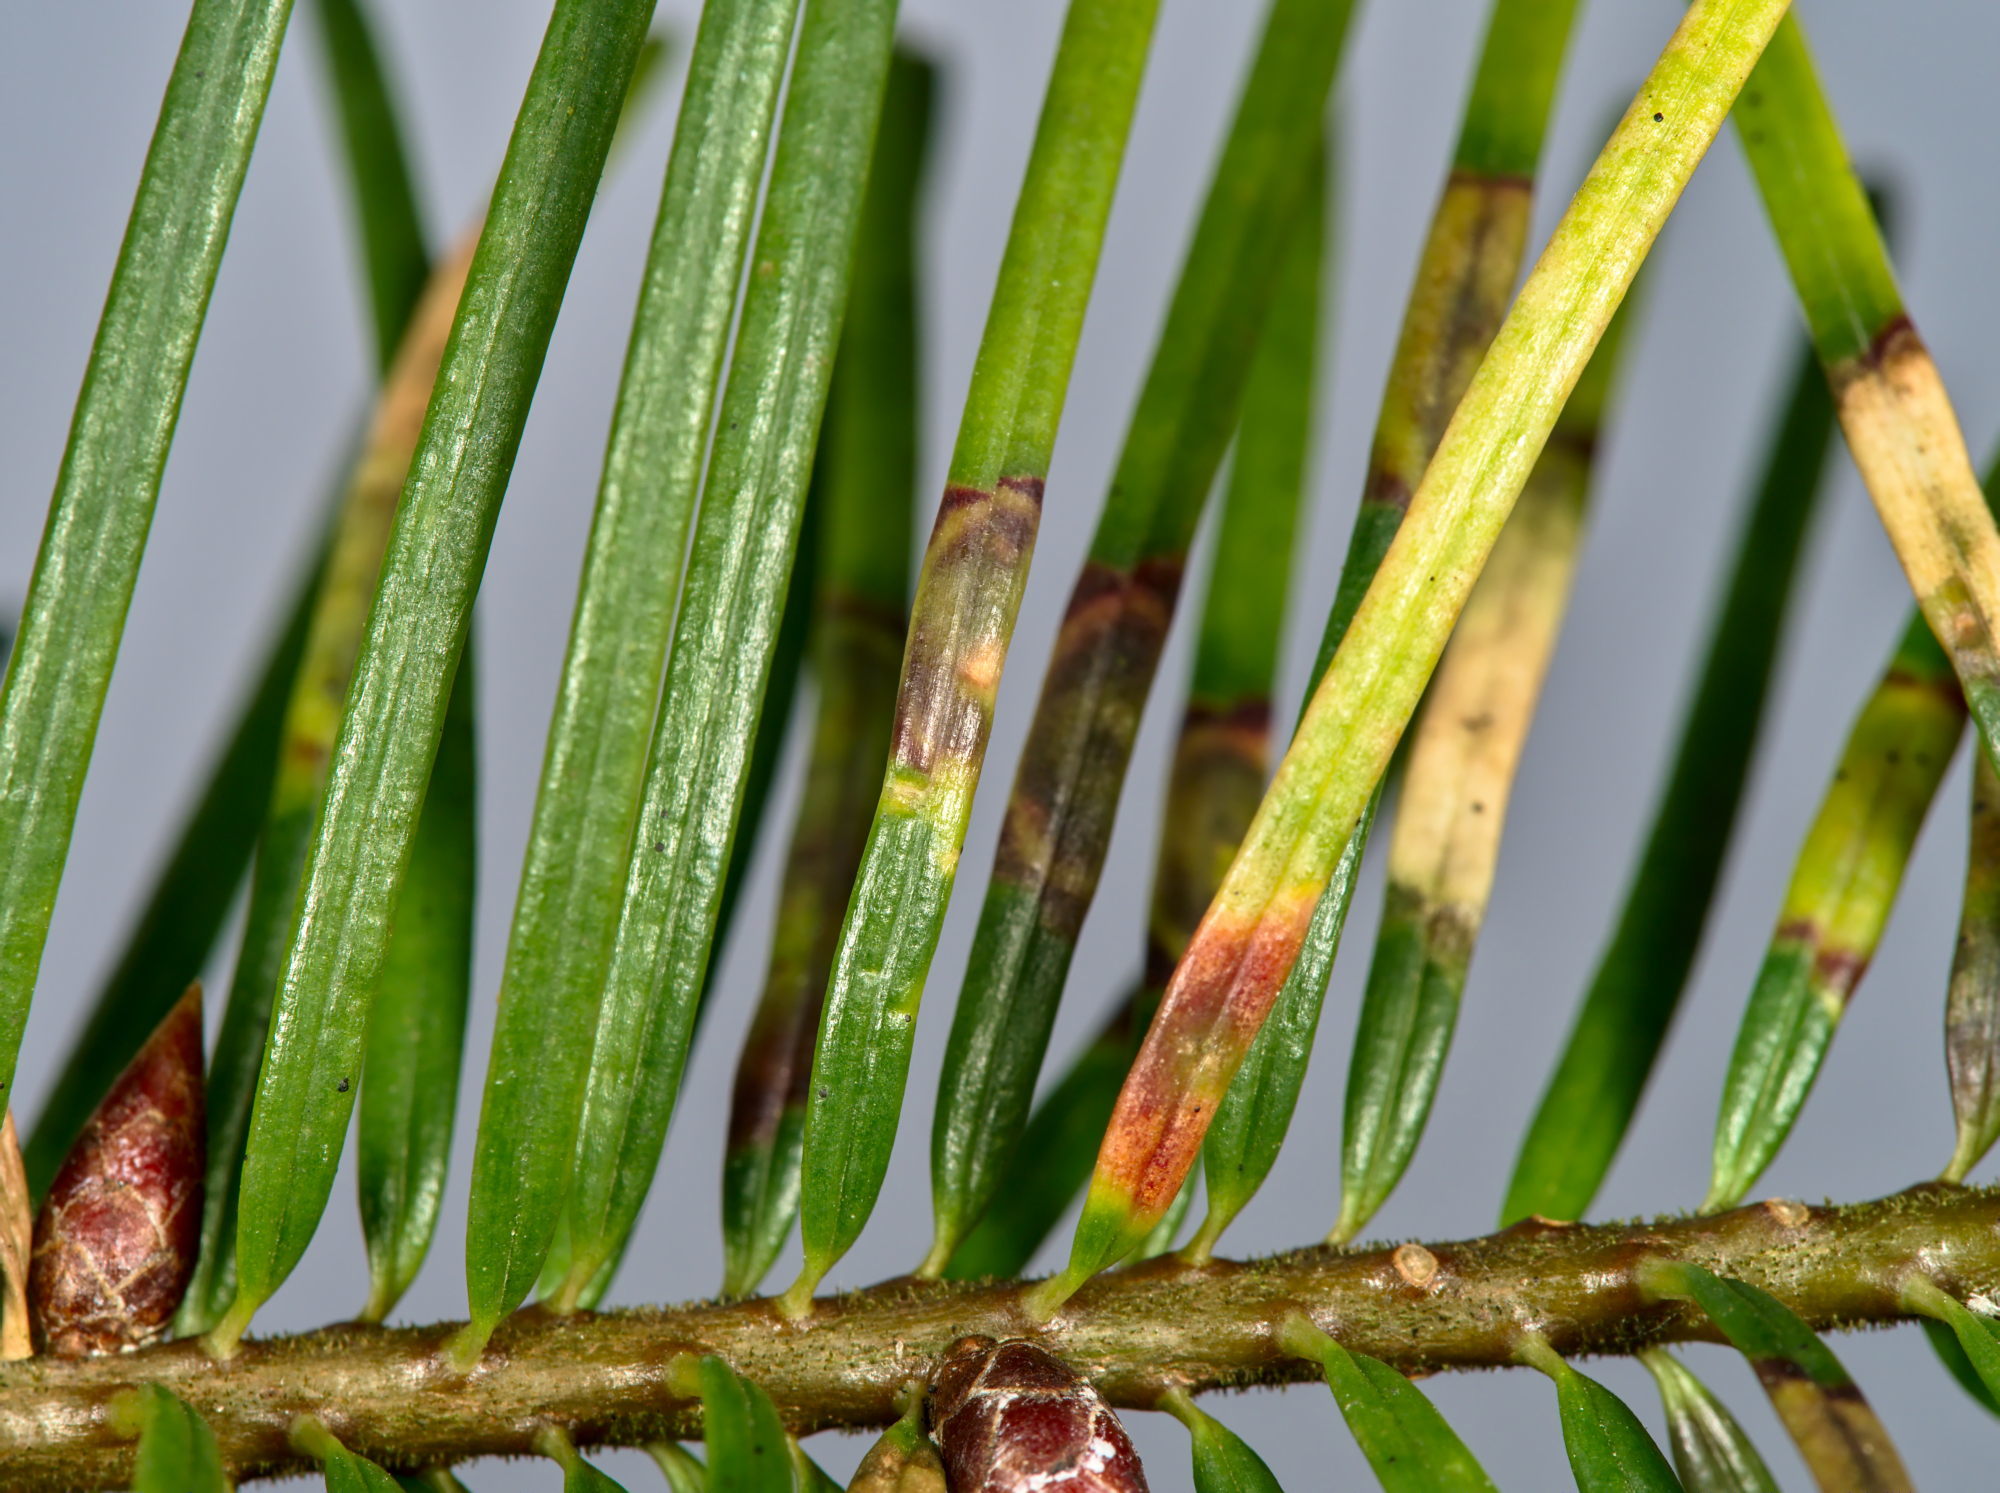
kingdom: Animalia
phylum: Arthropoda
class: Insecta
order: Diptera
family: Cecidomyiidae
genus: Contarinia
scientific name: Contarinia pseudotsugae
